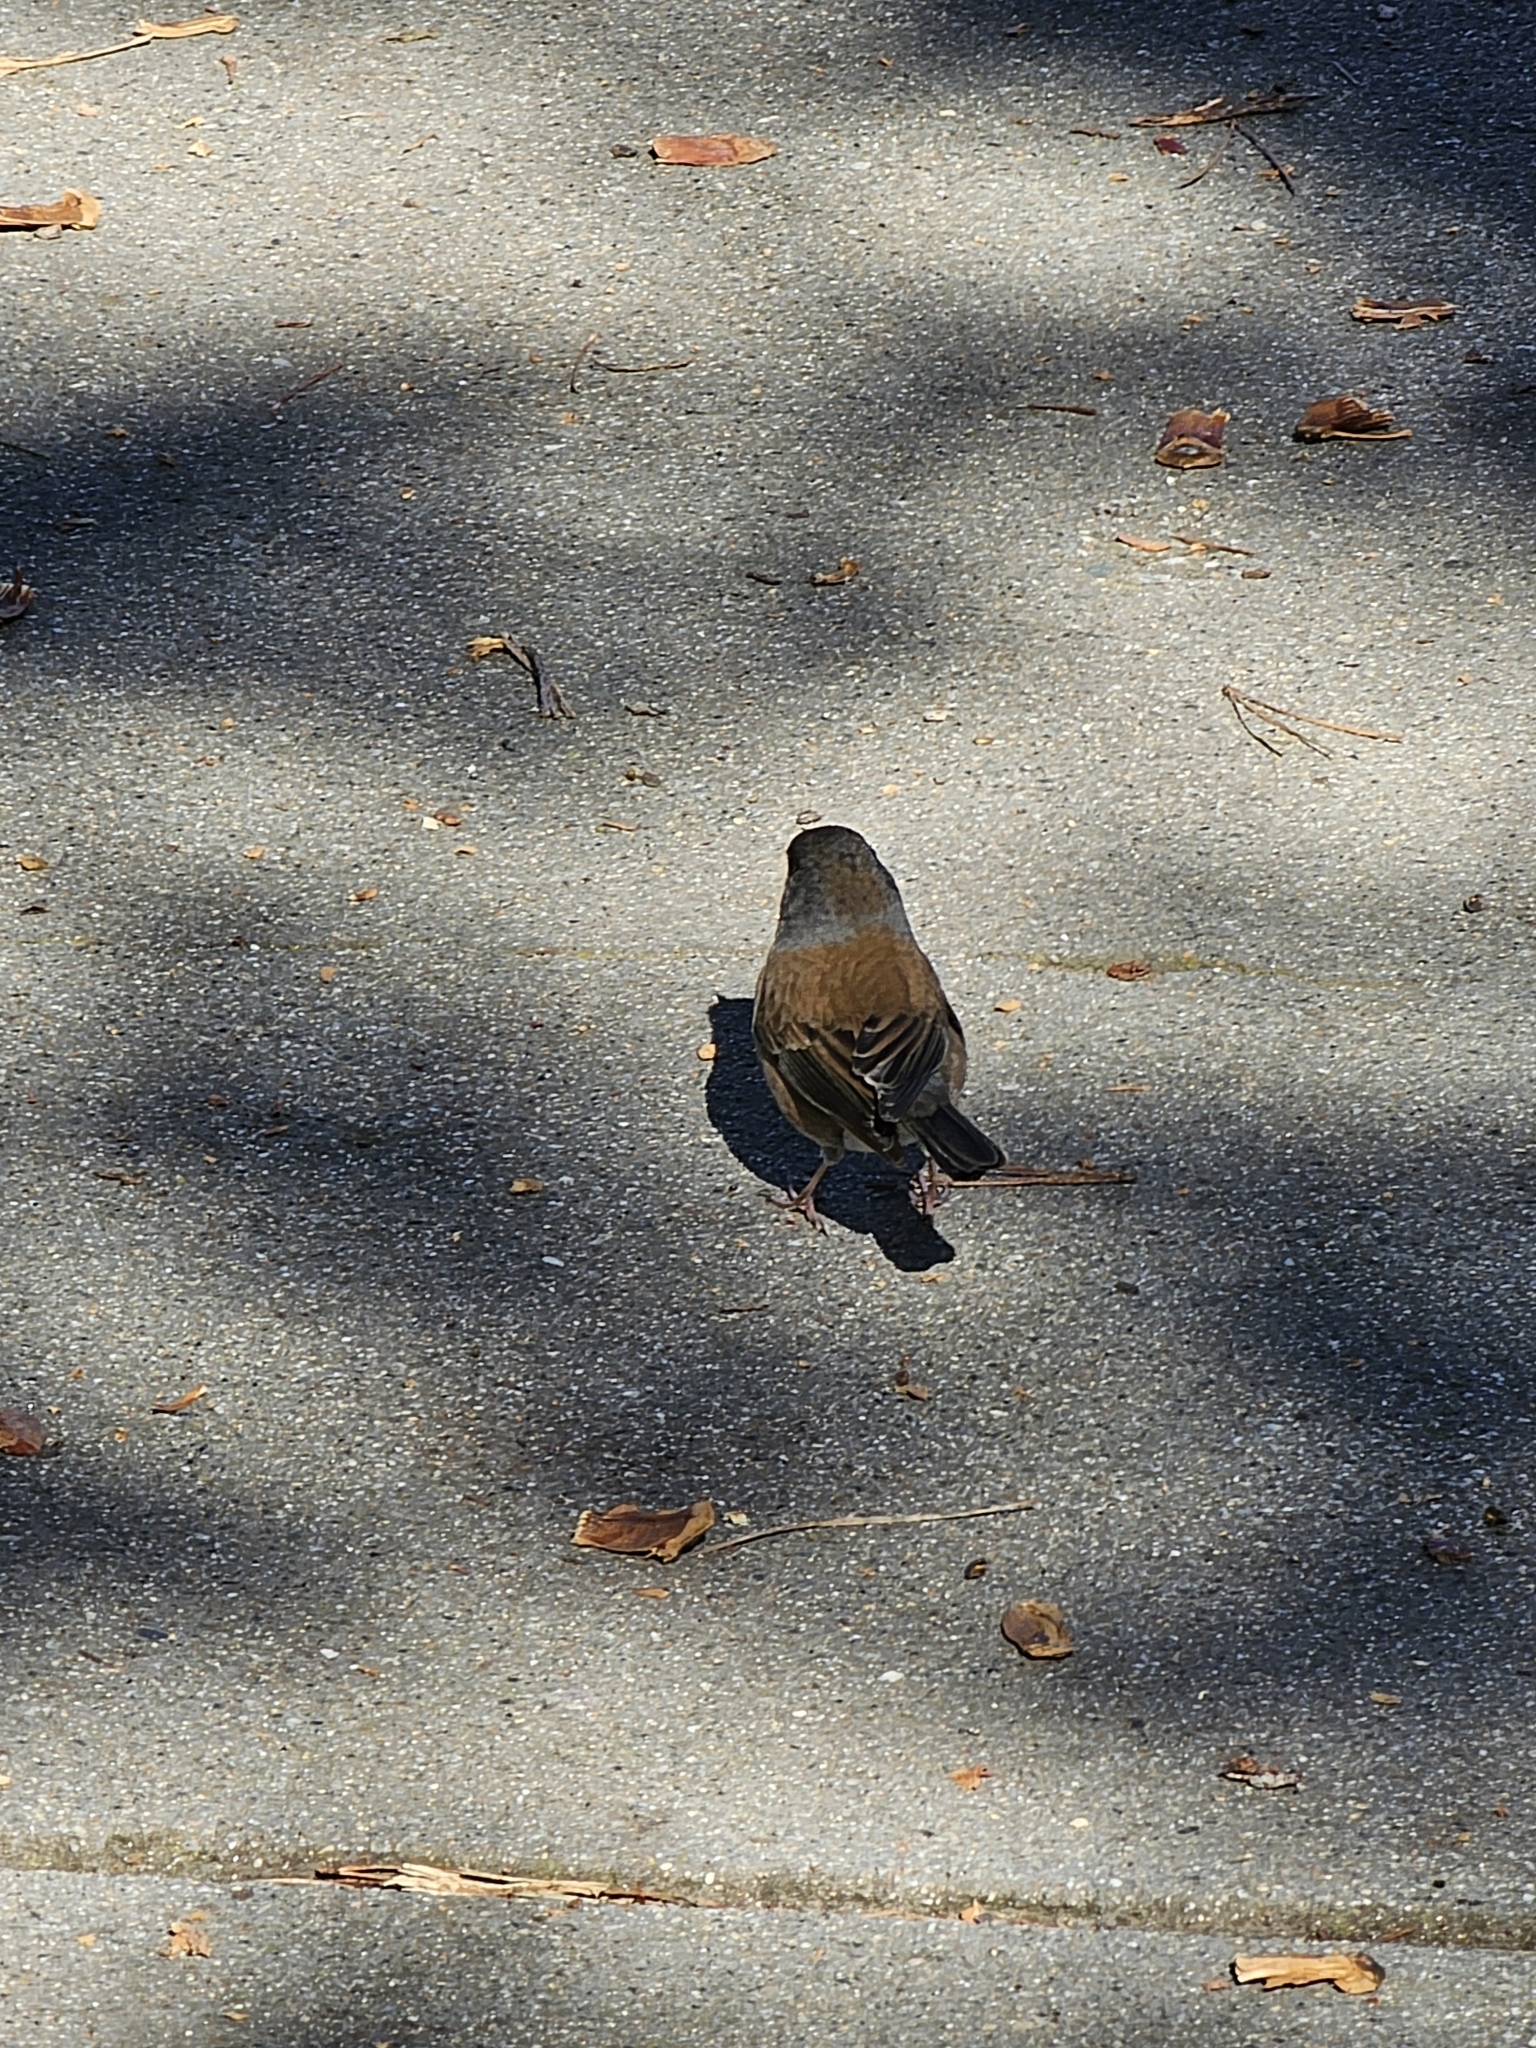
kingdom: Animalia
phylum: Chordata
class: Aves
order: Passeriformes
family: Passerellidae
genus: Junco
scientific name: Junco hyemalis
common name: Dark-eyed junco
